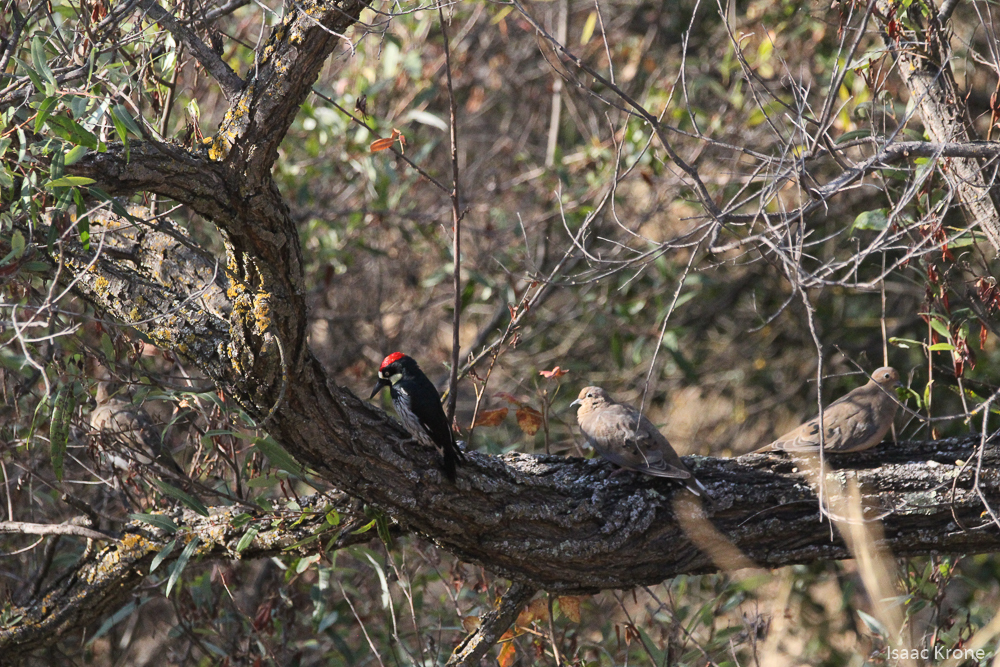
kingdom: Animalia
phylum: Chordata
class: Aves
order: Piciformes
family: Picidae
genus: Melanerpes
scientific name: Melanerpes formicivorus
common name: Acorn woodpecker
